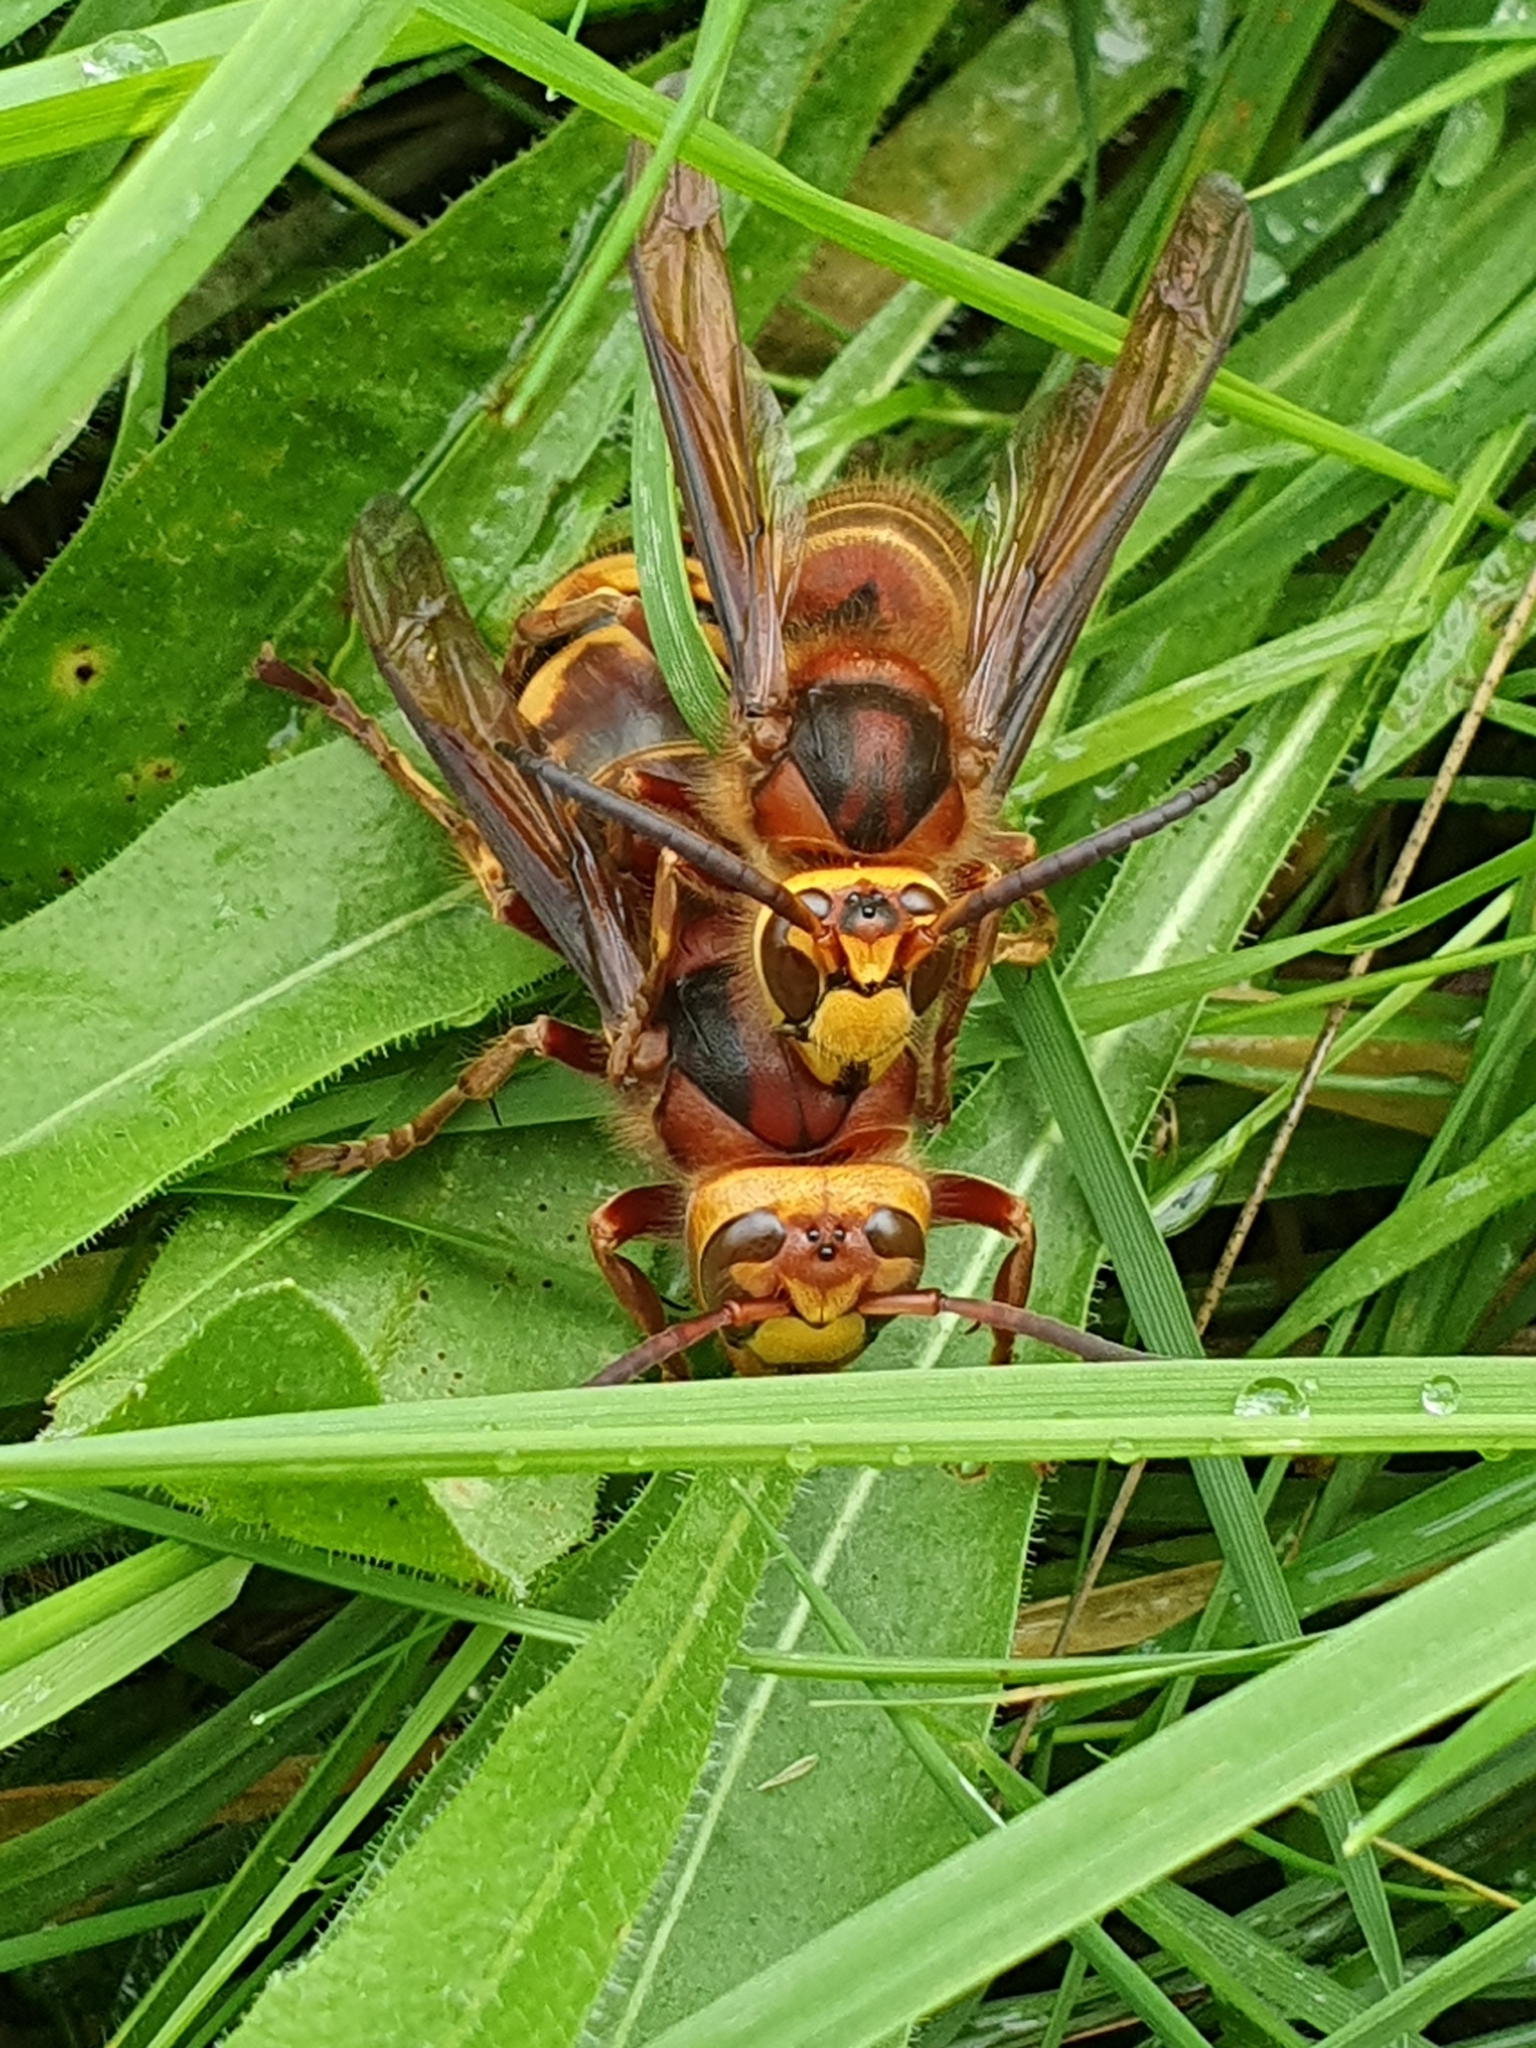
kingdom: Animalia
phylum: Arthropoda
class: Insecta
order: Hymenoptera
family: Vespidae
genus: Vespa
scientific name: Vespa crabro
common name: Hornet
